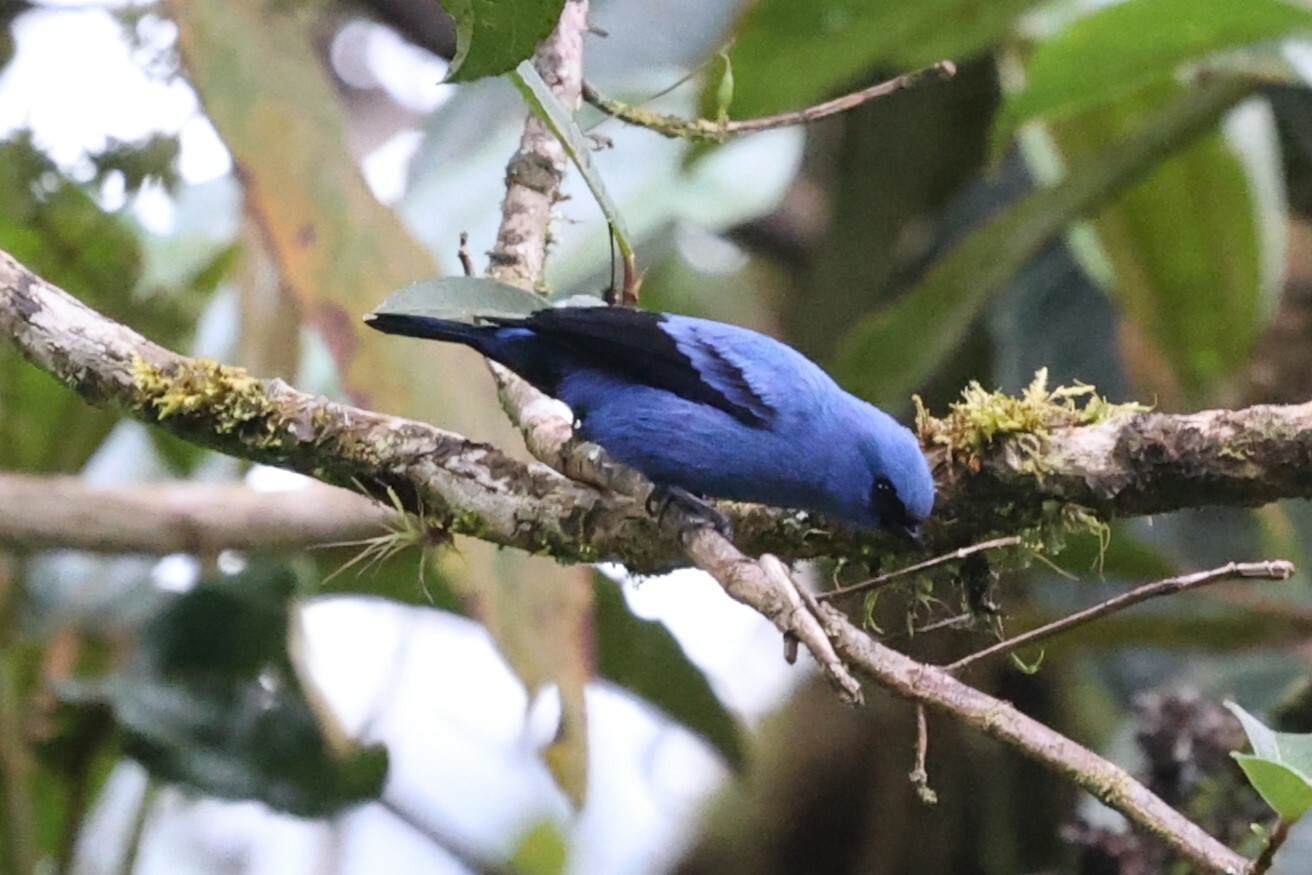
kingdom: Animalia
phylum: Chordata
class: Aves
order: Passeriformes
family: Thraupidae
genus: Tangara
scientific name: Tangara vassorii
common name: Blue-and-black tanager
